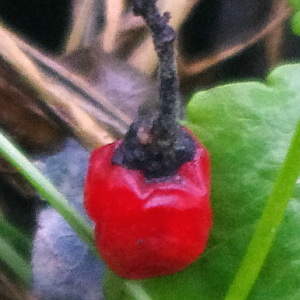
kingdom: Plantae
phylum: Tracheophyta
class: Magnoliopsida
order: Solanales
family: Solanaceae
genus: Solanum
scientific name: Solanum dulcamara
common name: Climbing nightshade
